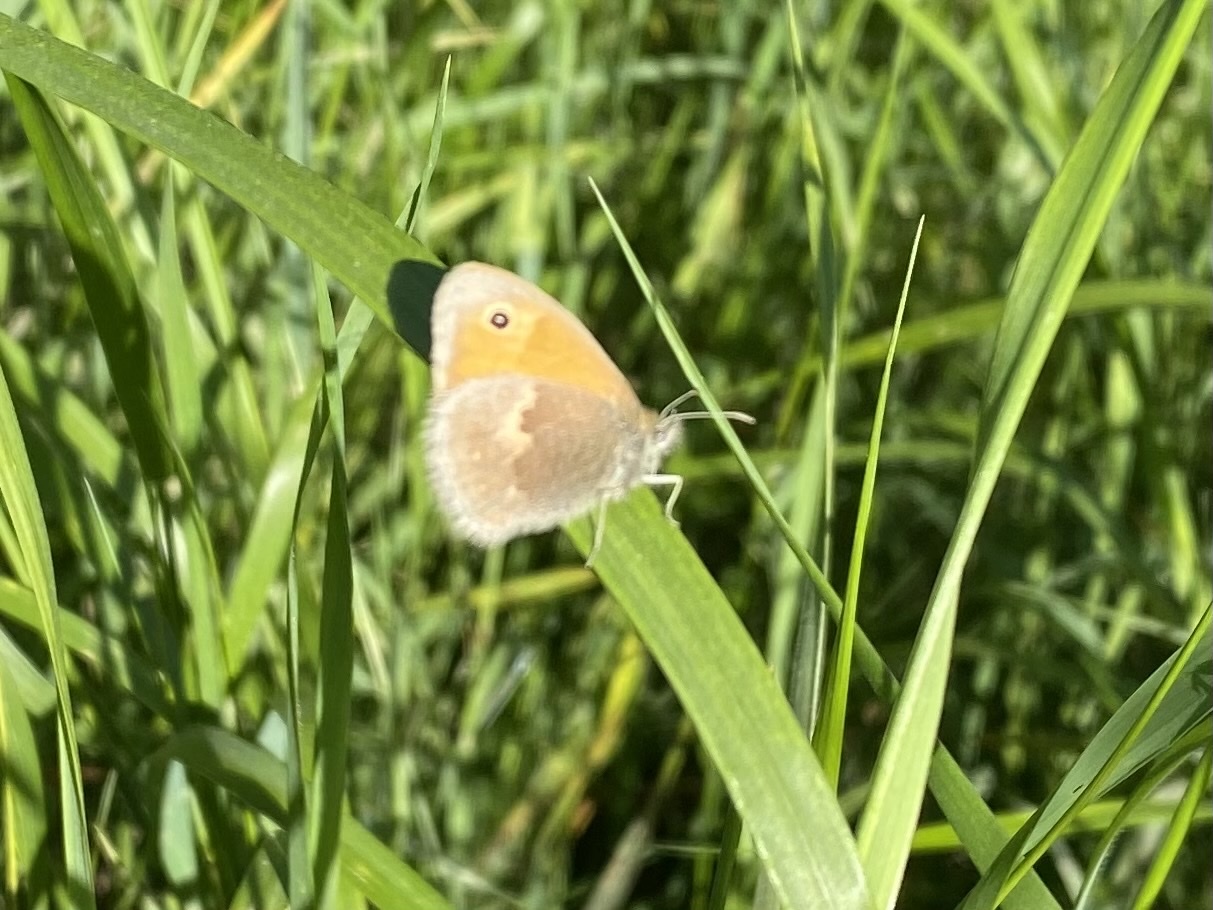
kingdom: Animalia
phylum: Arthropoda
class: Insecta
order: Lepidoptera
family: Nymphalidae
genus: Coenonympha
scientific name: Coenonympha pamphilus
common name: Small heath
